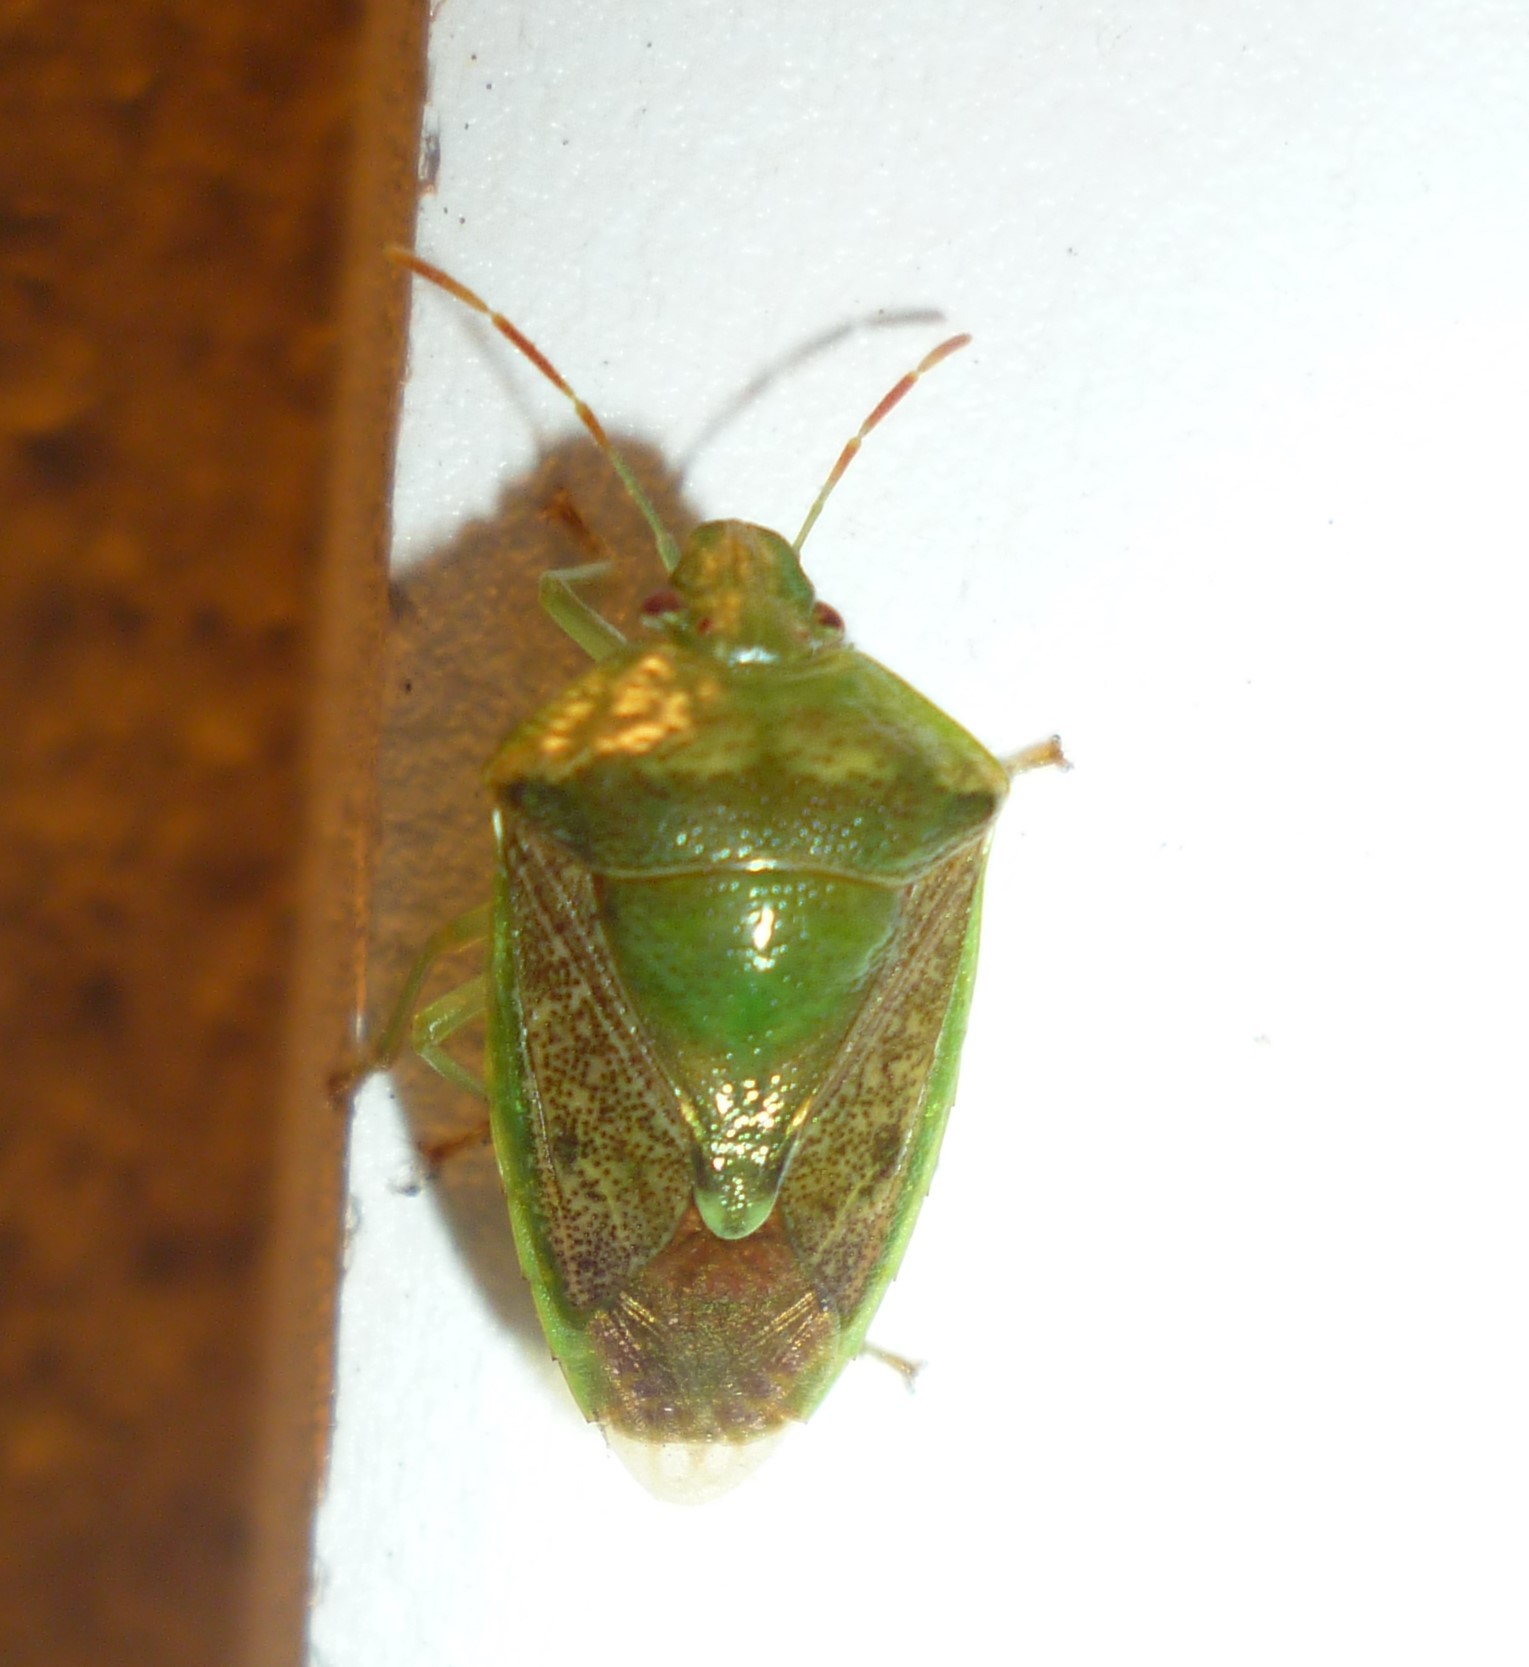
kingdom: Animalia
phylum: Arthropoda
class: Insecta
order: Hemiptera
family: Pentatomidae
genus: Banasa
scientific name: Banasa calva
